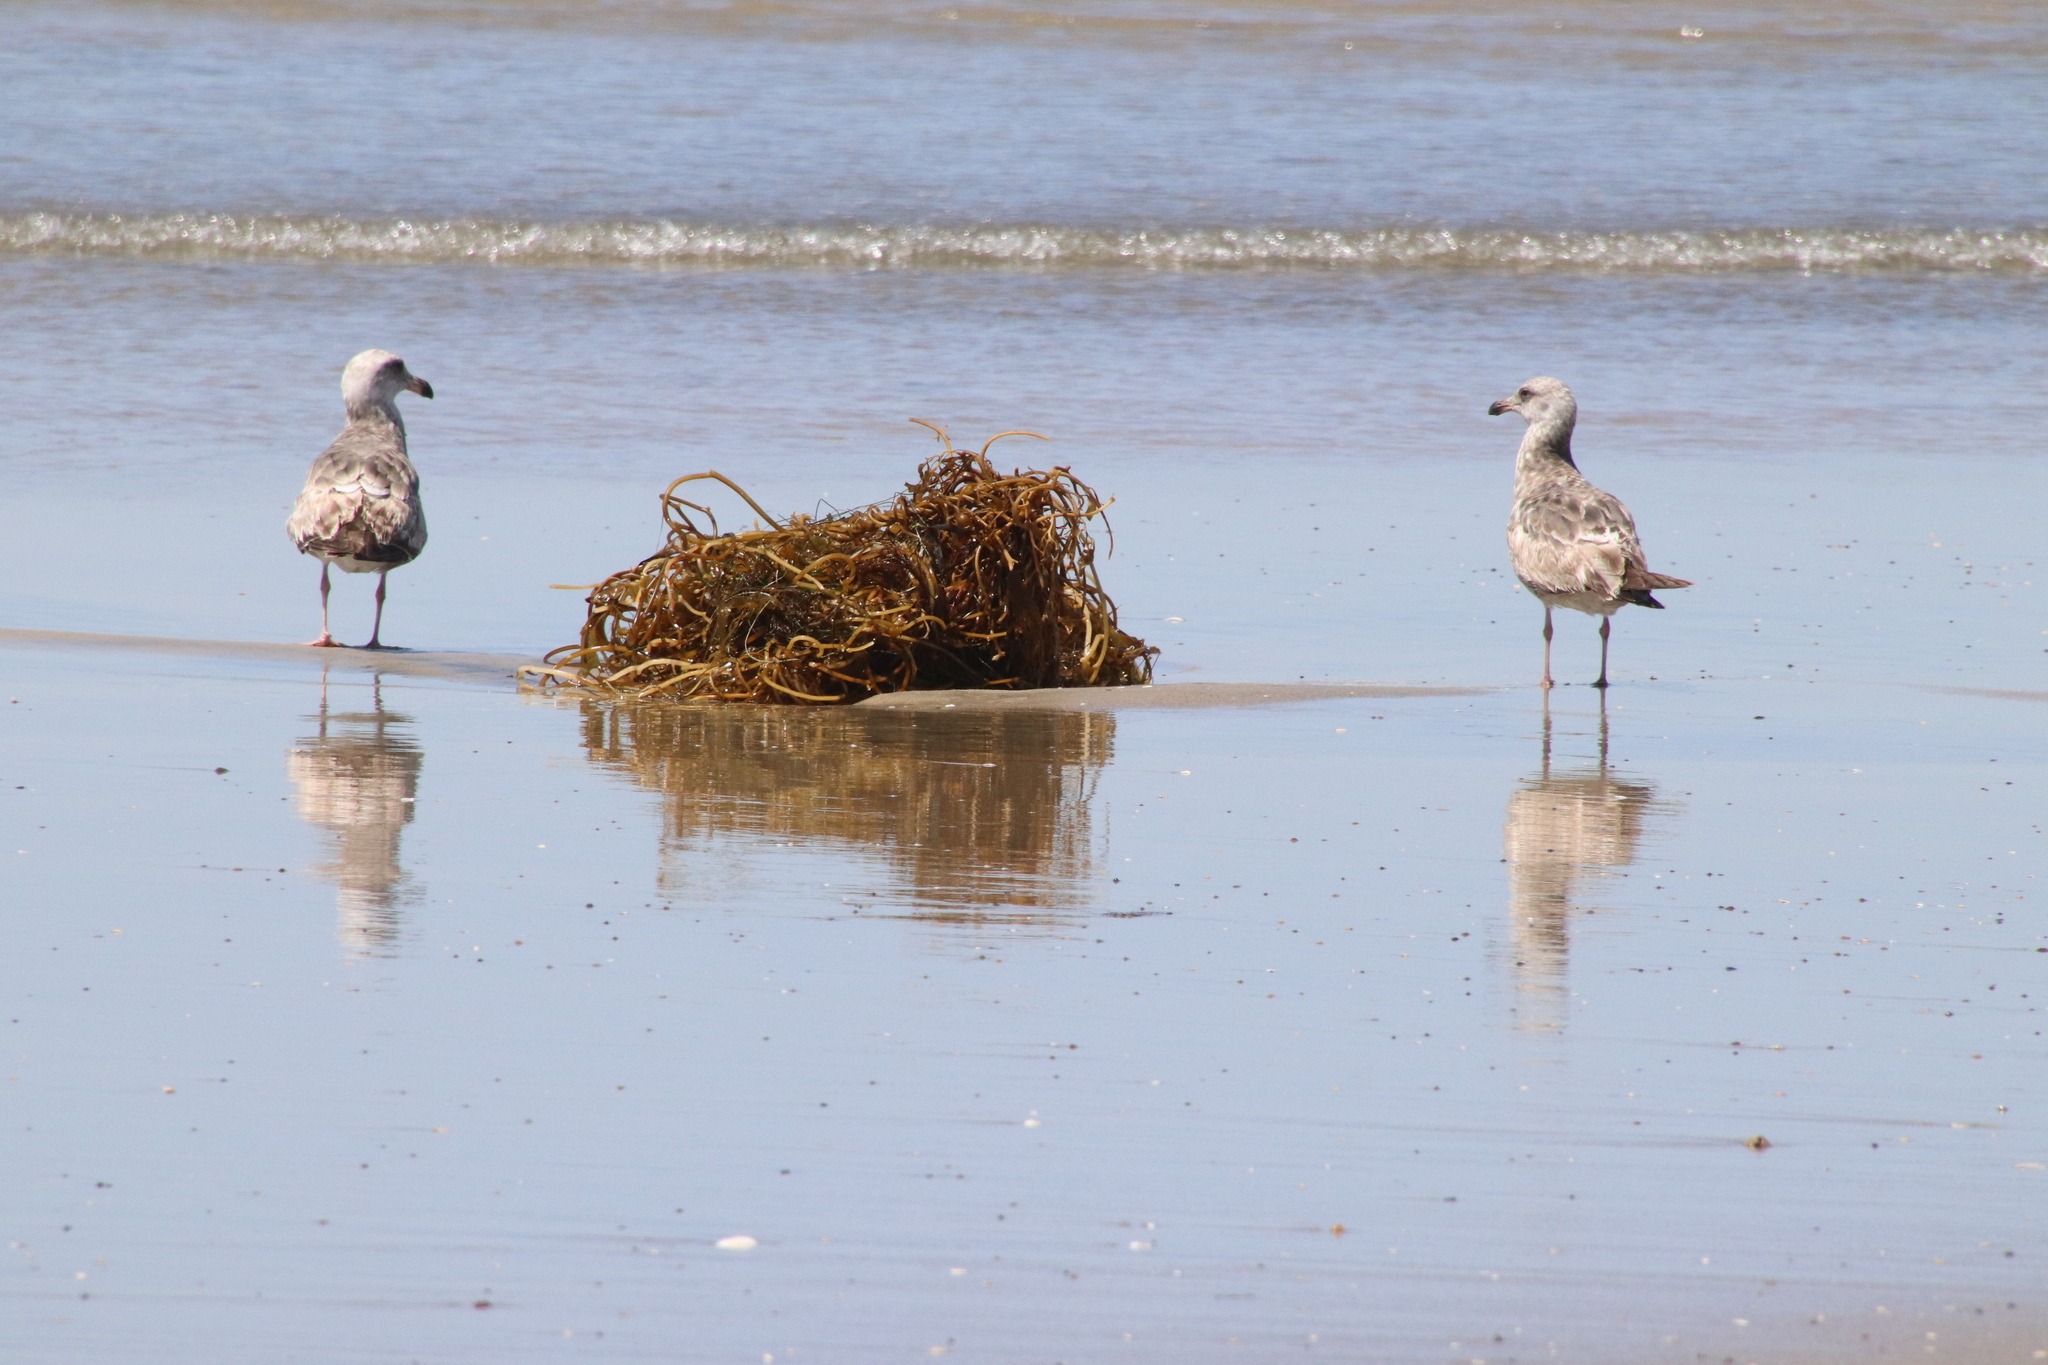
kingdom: Animalia
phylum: Chordata
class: Aves
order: Charadriiformes
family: Laridae
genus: Larus
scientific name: Larus occidentalis
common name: Western gull
